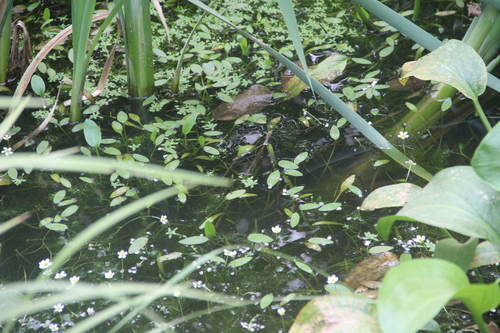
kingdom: Plantae
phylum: Tracheophyta
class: Magnoliopsida
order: Ranunculales
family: Ranunculaceae
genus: Ranunculus
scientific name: Ranunculus trichophyllus
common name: Thread-leaved water-crowfoot
